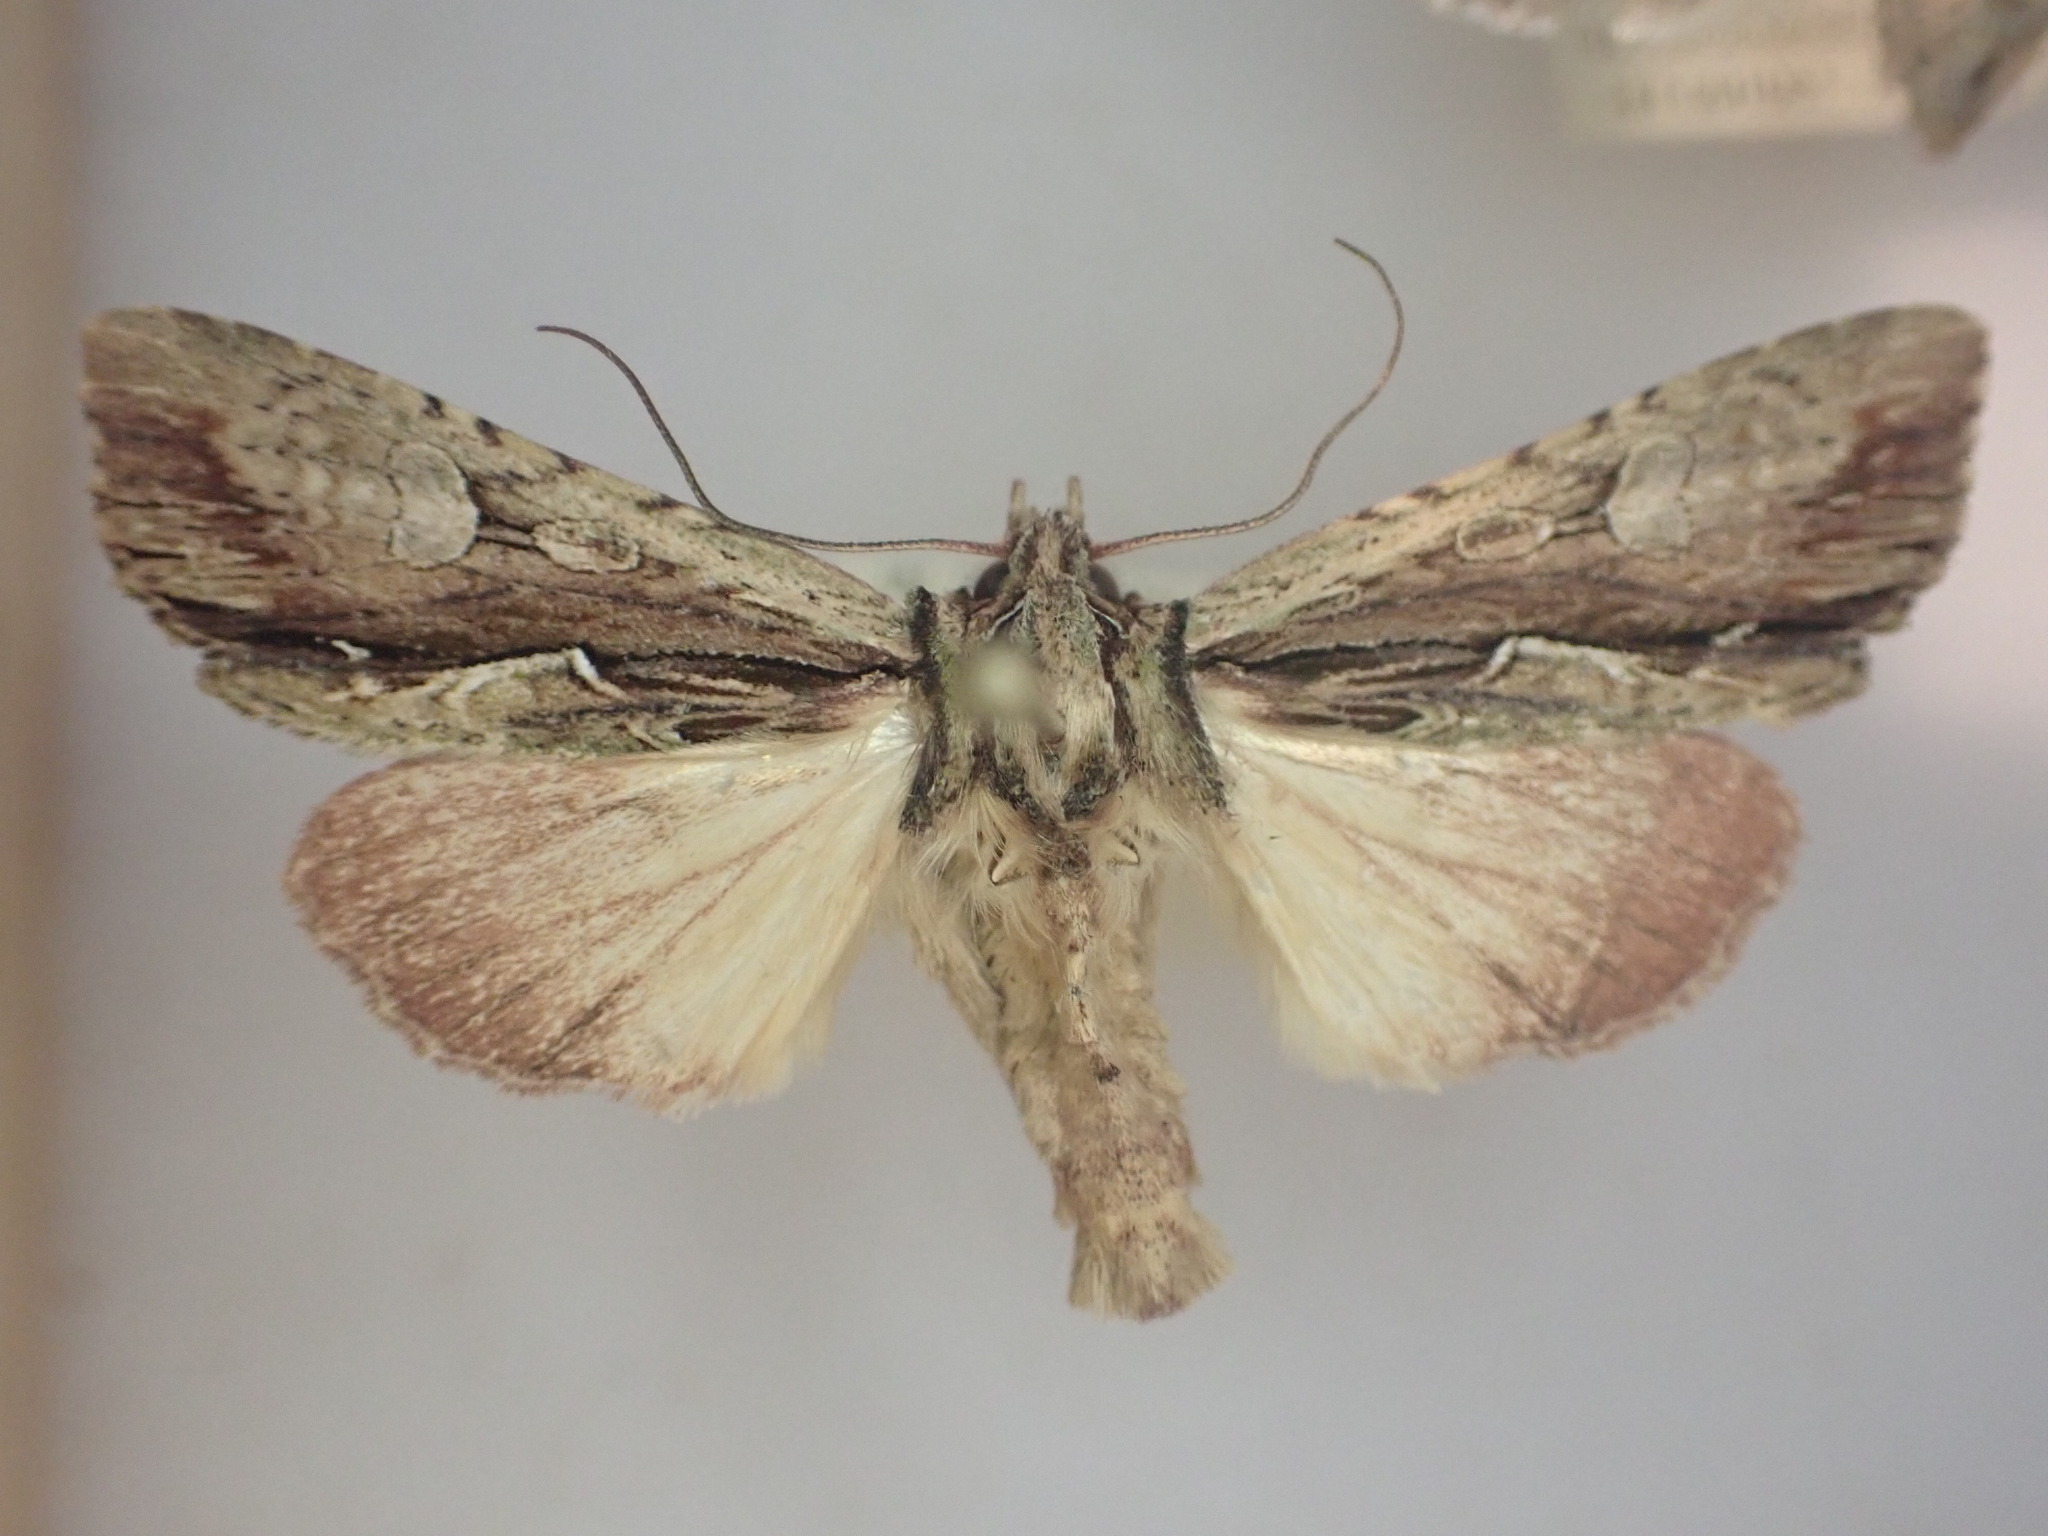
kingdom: Animalia
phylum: Arthropoda
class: Insecta
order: Lepidoptera
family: Noctuidae
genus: Meterana
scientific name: Meterana decorata
